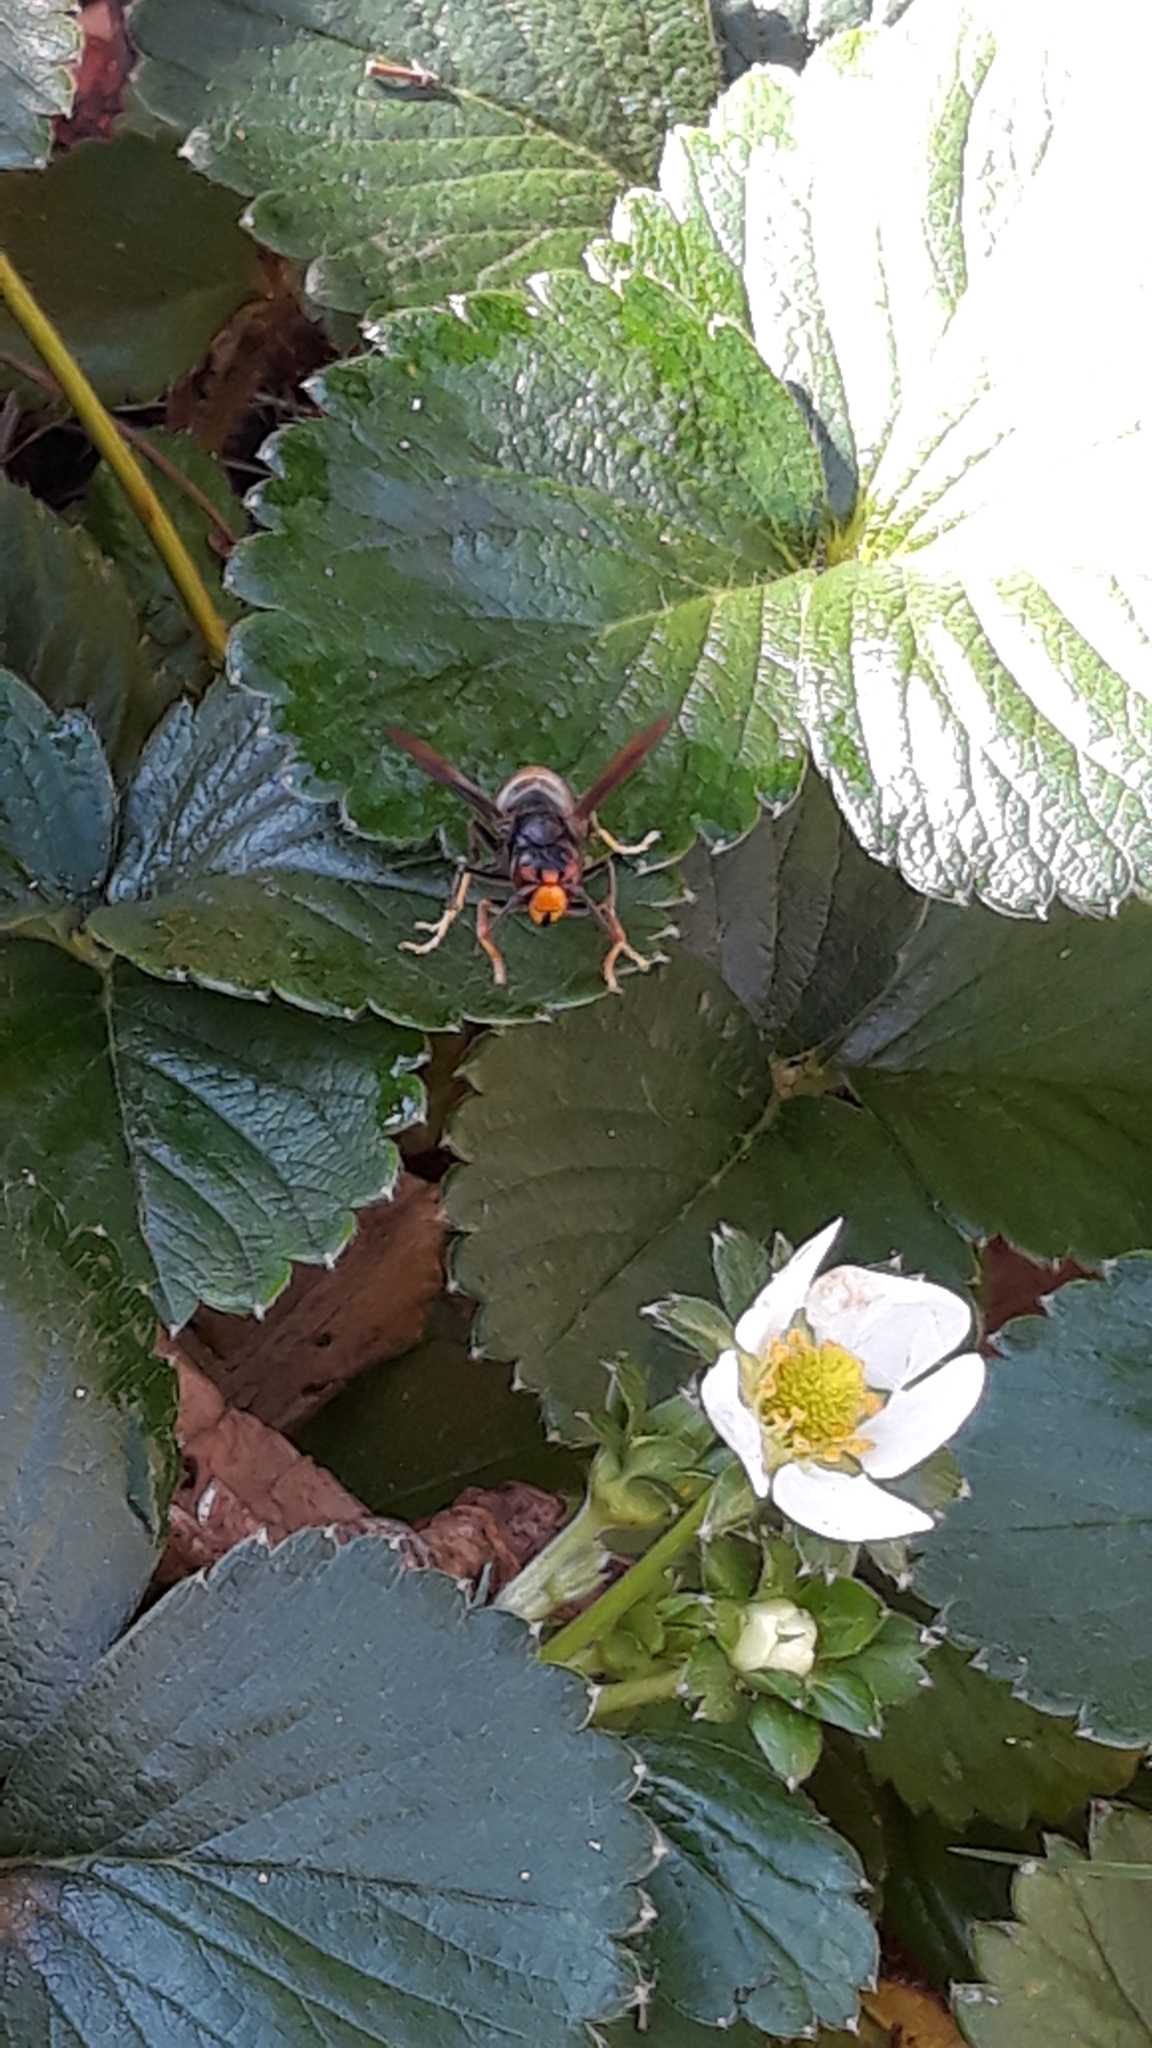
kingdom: Animalia
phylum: Arthropoda
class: Insecta
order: Hymenoptera
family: Vespidae
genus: Vespa
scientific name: Vespa velutina
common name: Asian hornet
